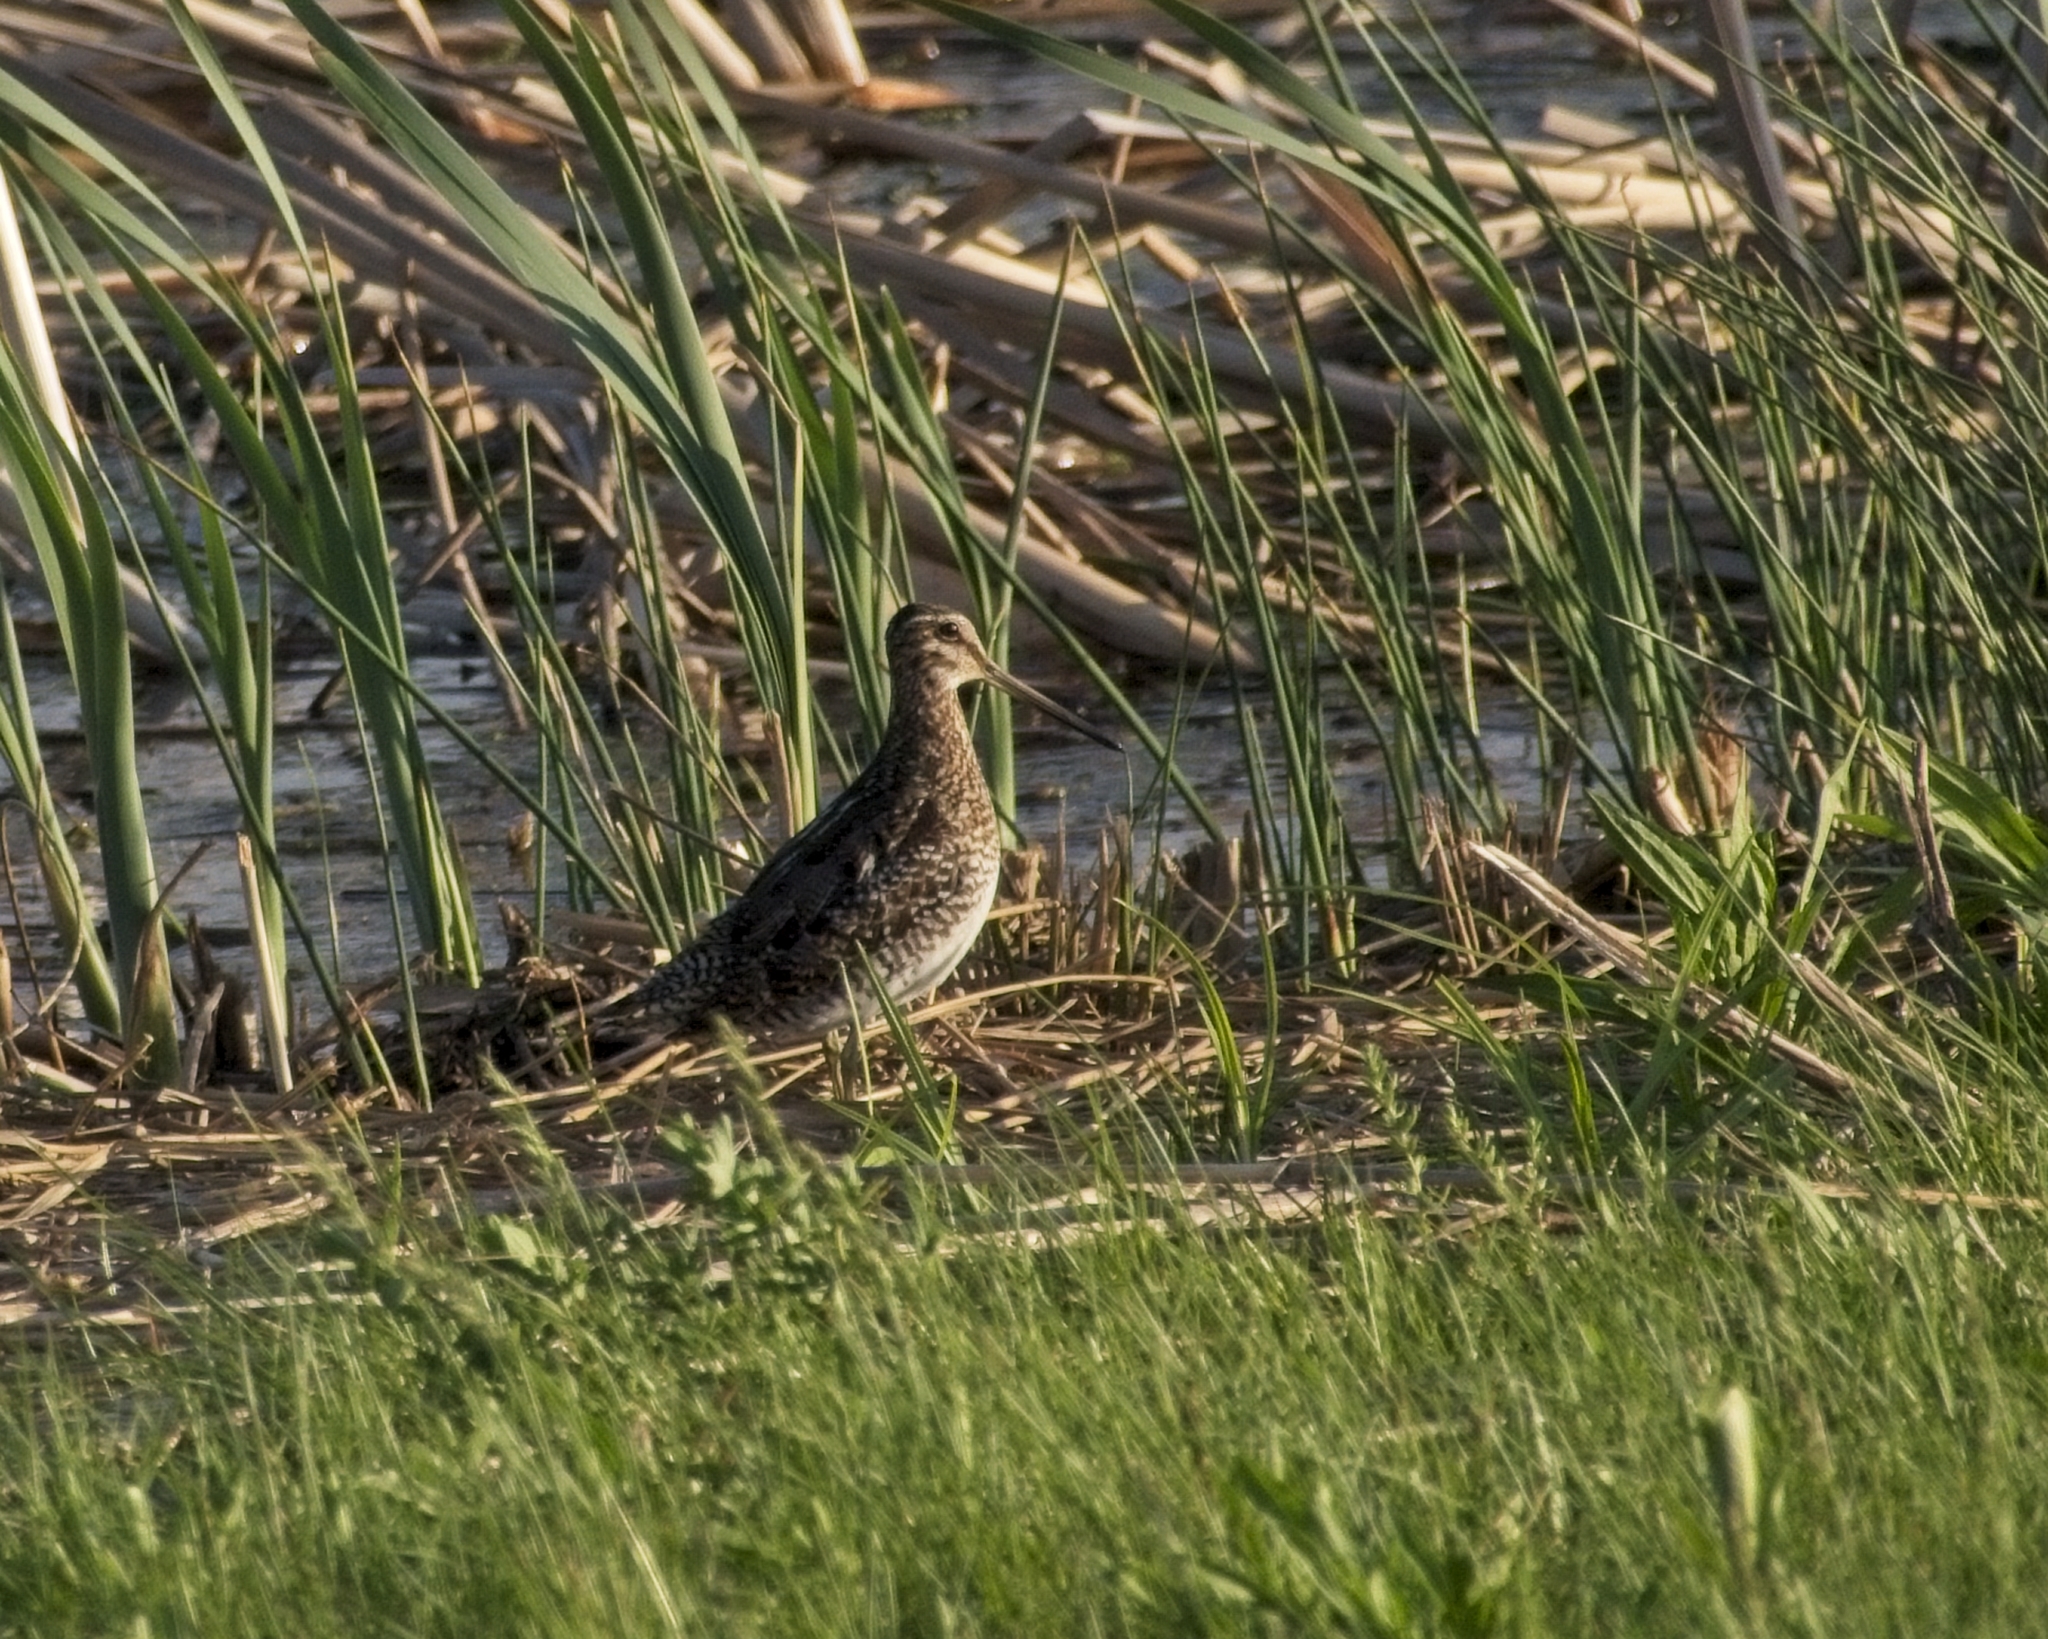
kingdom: Animalia
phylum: Chordata
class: Aves
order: Charadriiformes
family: Scolopacidae
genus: Gallinago
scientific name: Gallinago delicata
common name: Wilson's snipe
